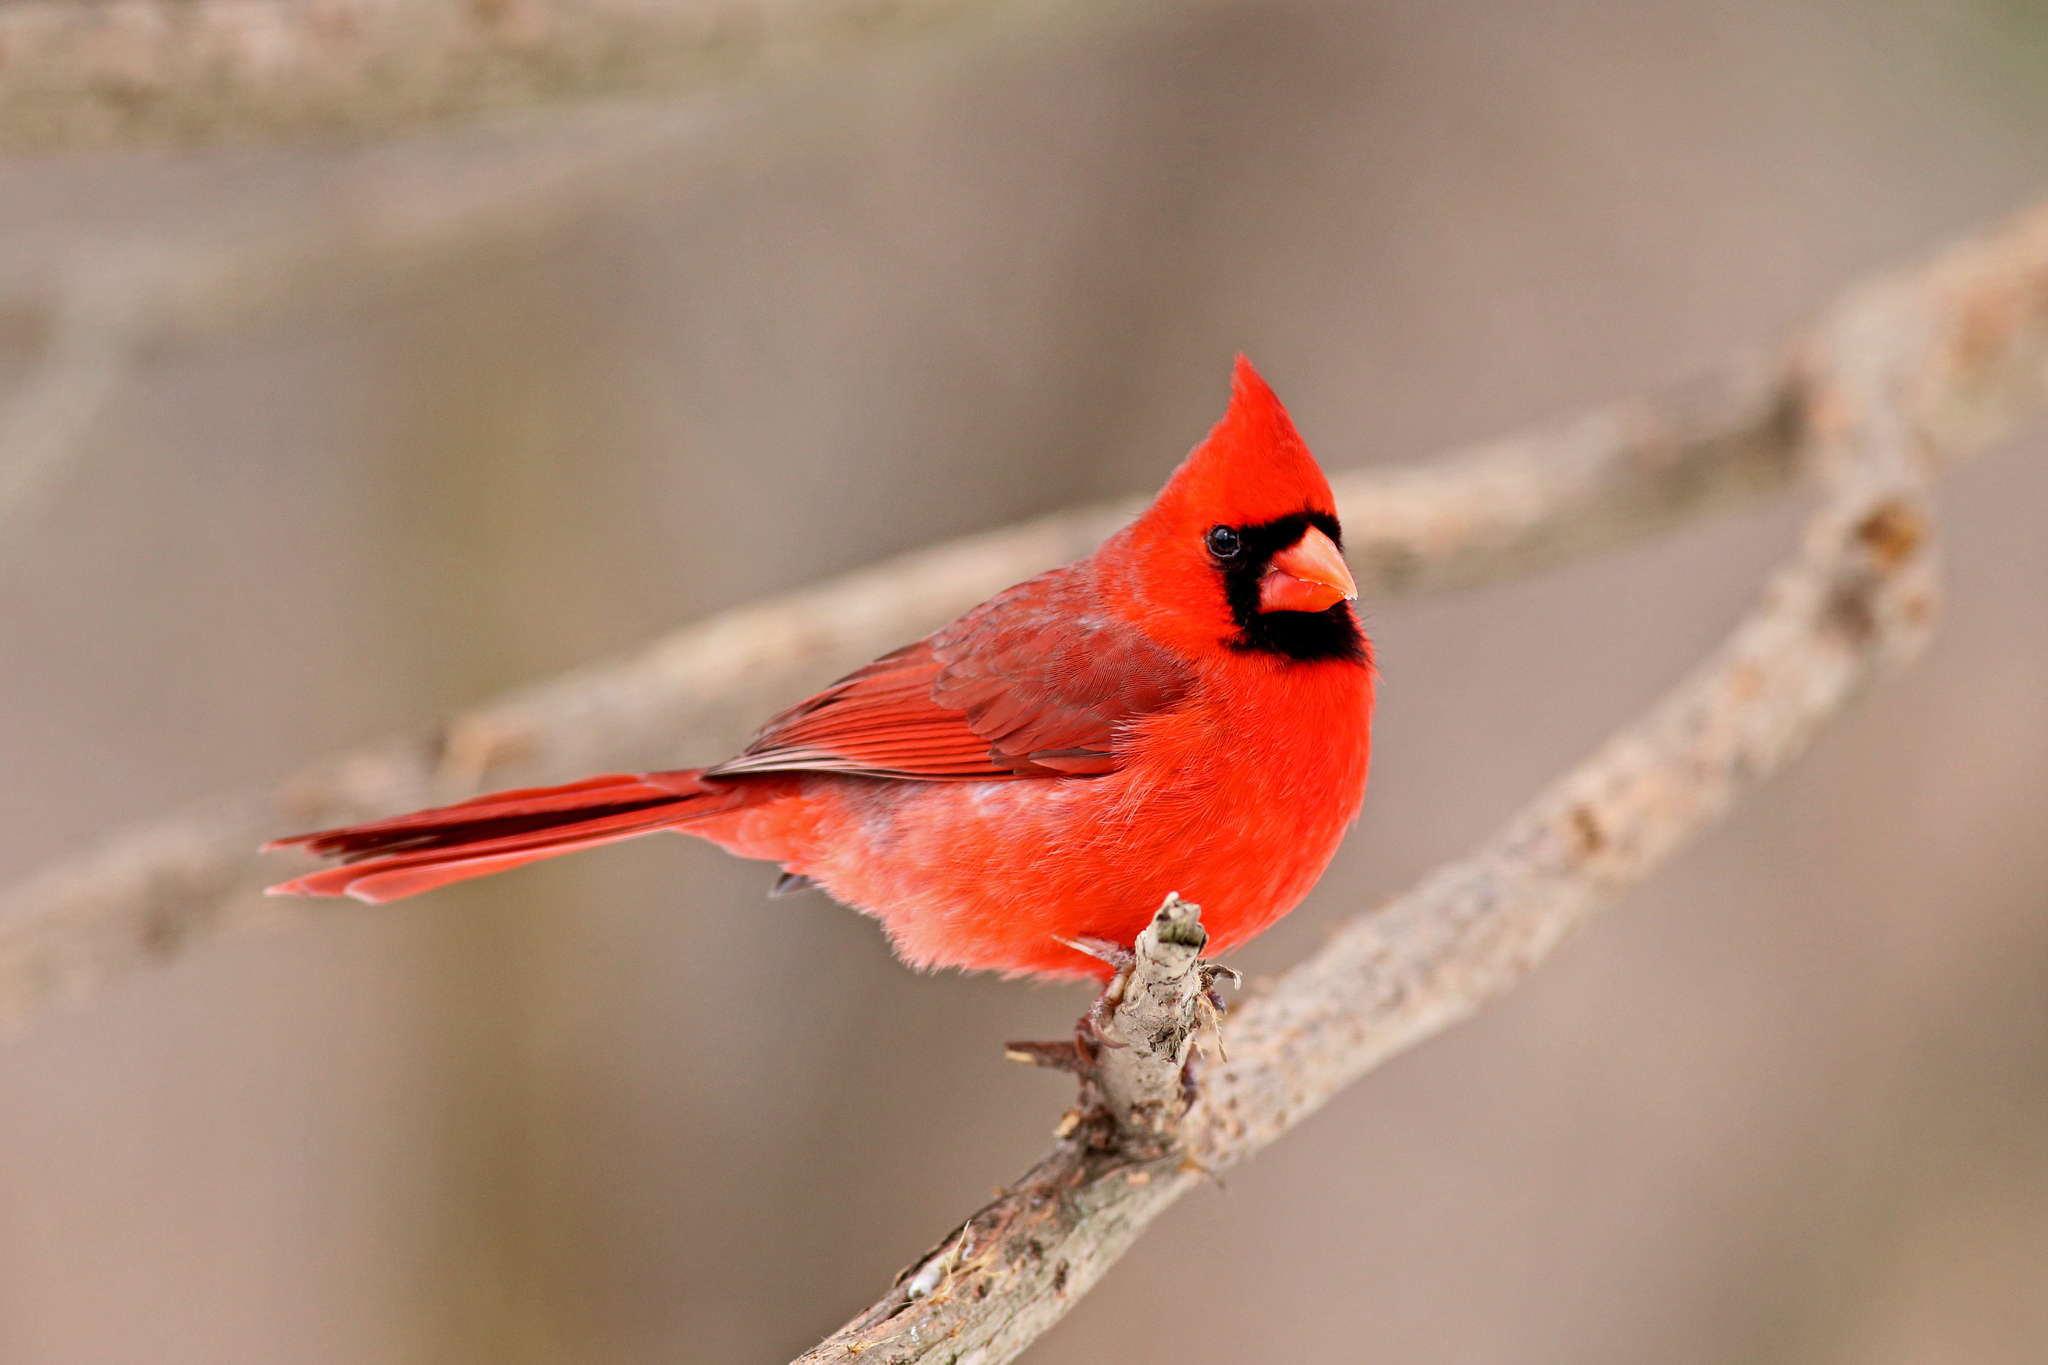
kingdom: Animalia
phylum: Chordata
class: Aves
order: Passeriformes
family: Cardinalidae
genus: Cardinalis
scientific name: Cardinalis cardinalis
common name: Northern cardinal
